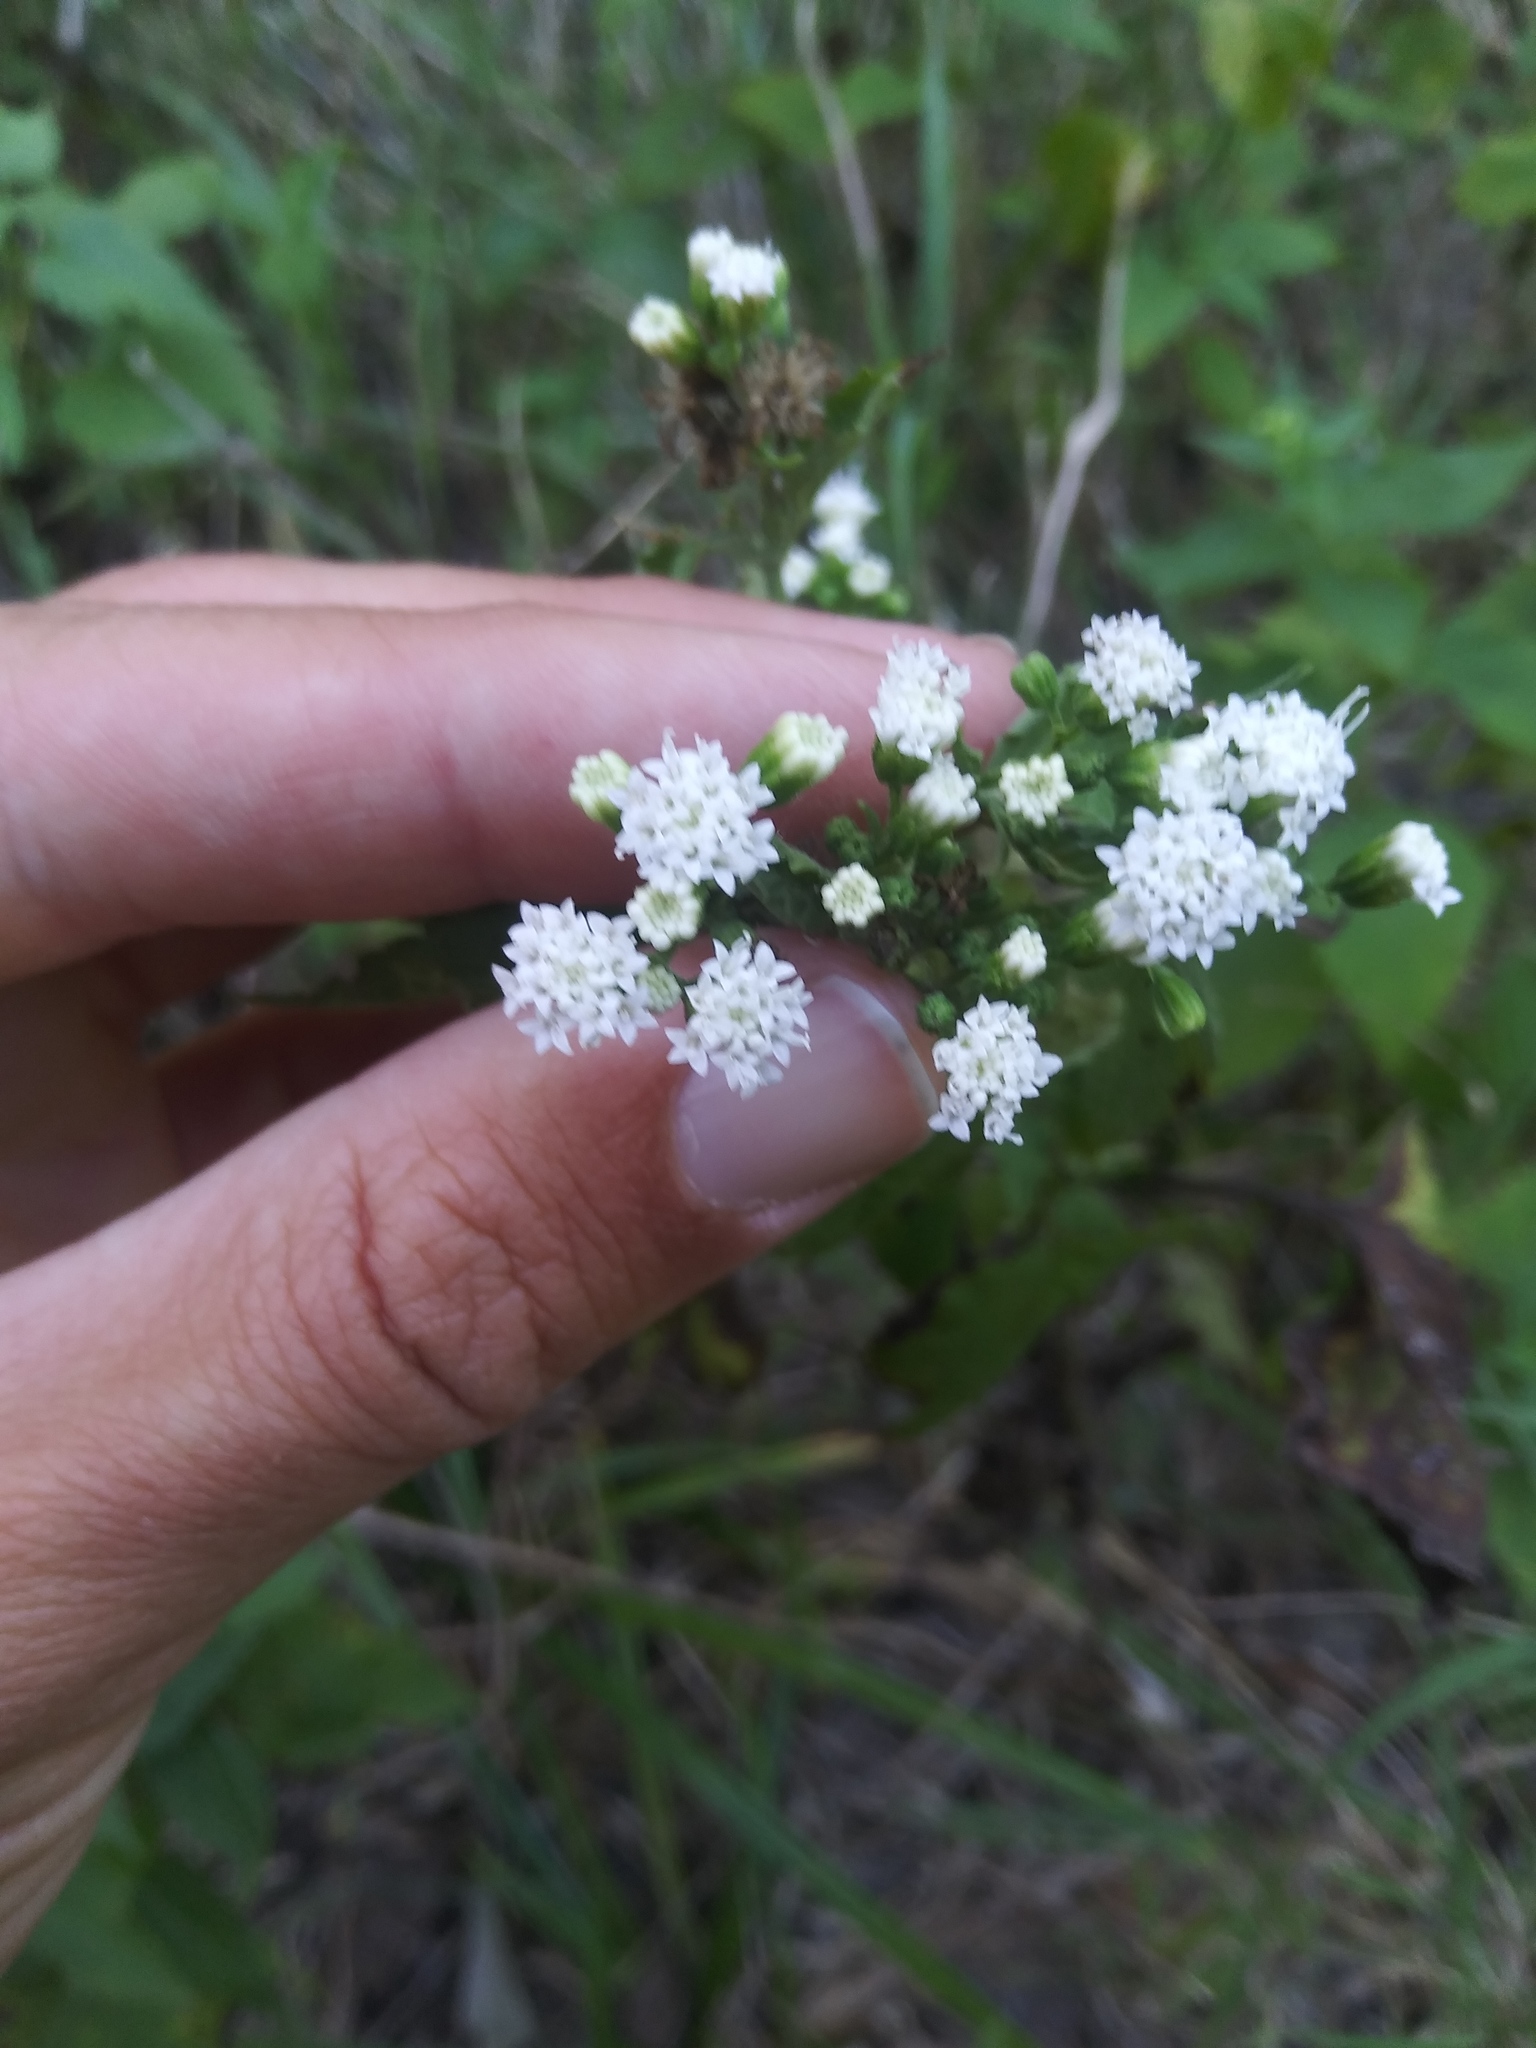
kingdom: Plantae
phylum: Tracheophyta
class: Magnoliopsida
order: Asterales
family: Asteraceae
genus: Ageratina
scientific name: Ageratina altissima
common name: White snakeroot
